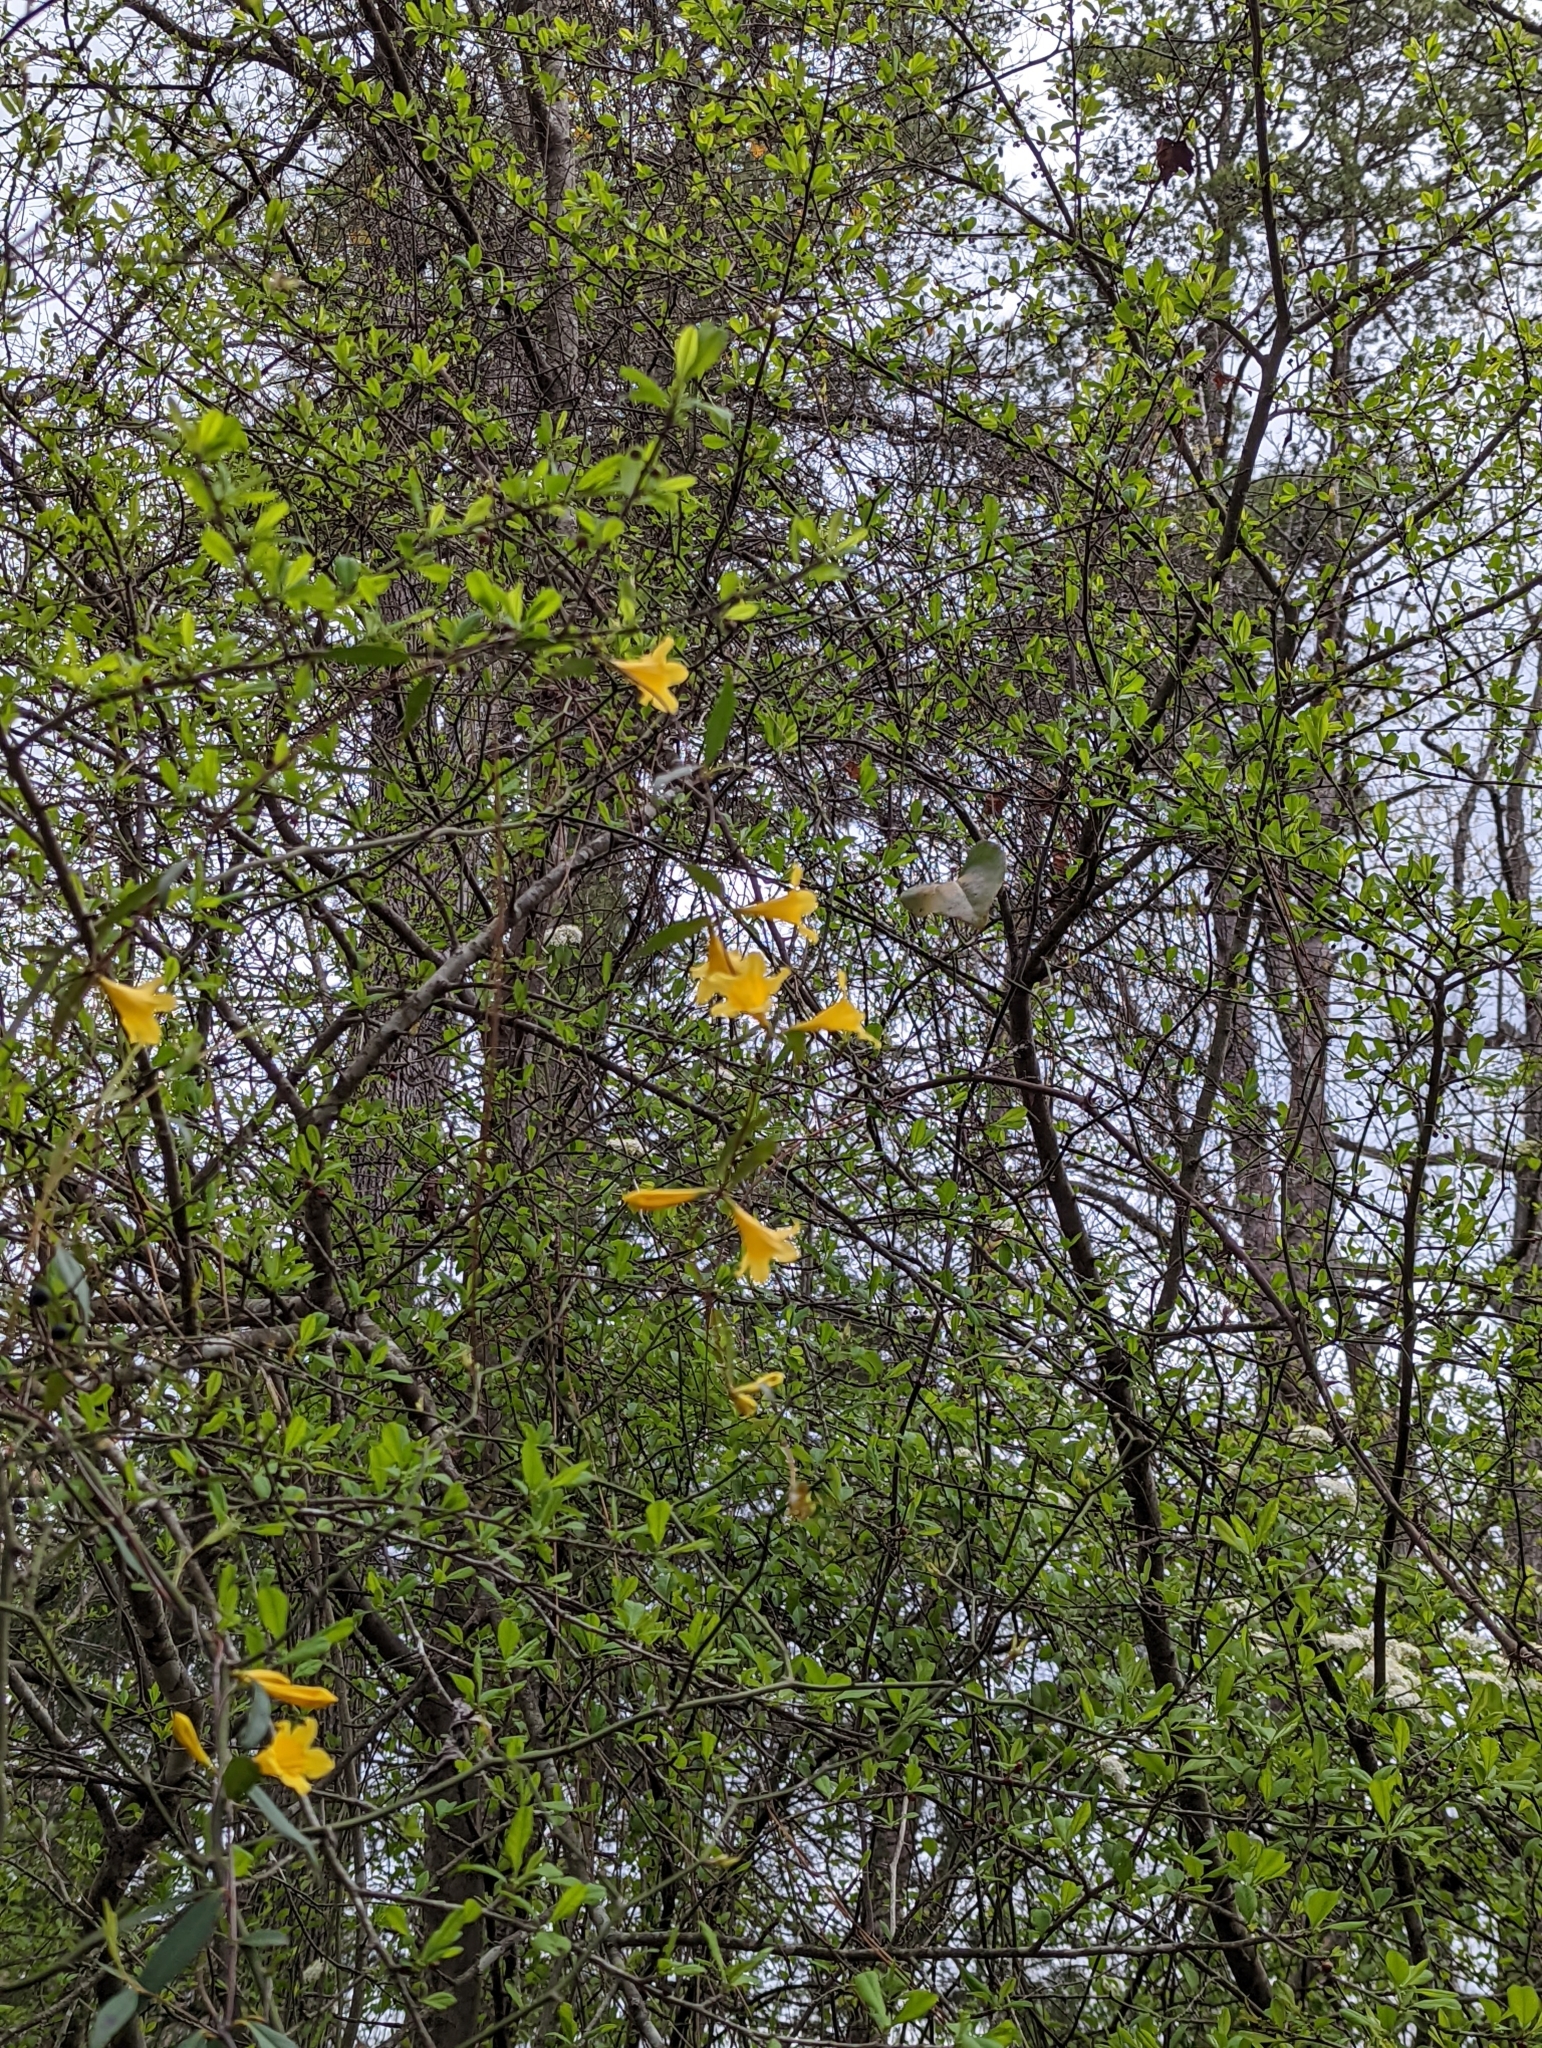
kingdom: Plantae
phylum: Tracheophyta
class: Magnoliopsida
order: Gentianales
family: Gelsemiaceae
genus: Gelsemium
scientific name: Gelsemium sempervirens
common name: Carolina-jasmine
